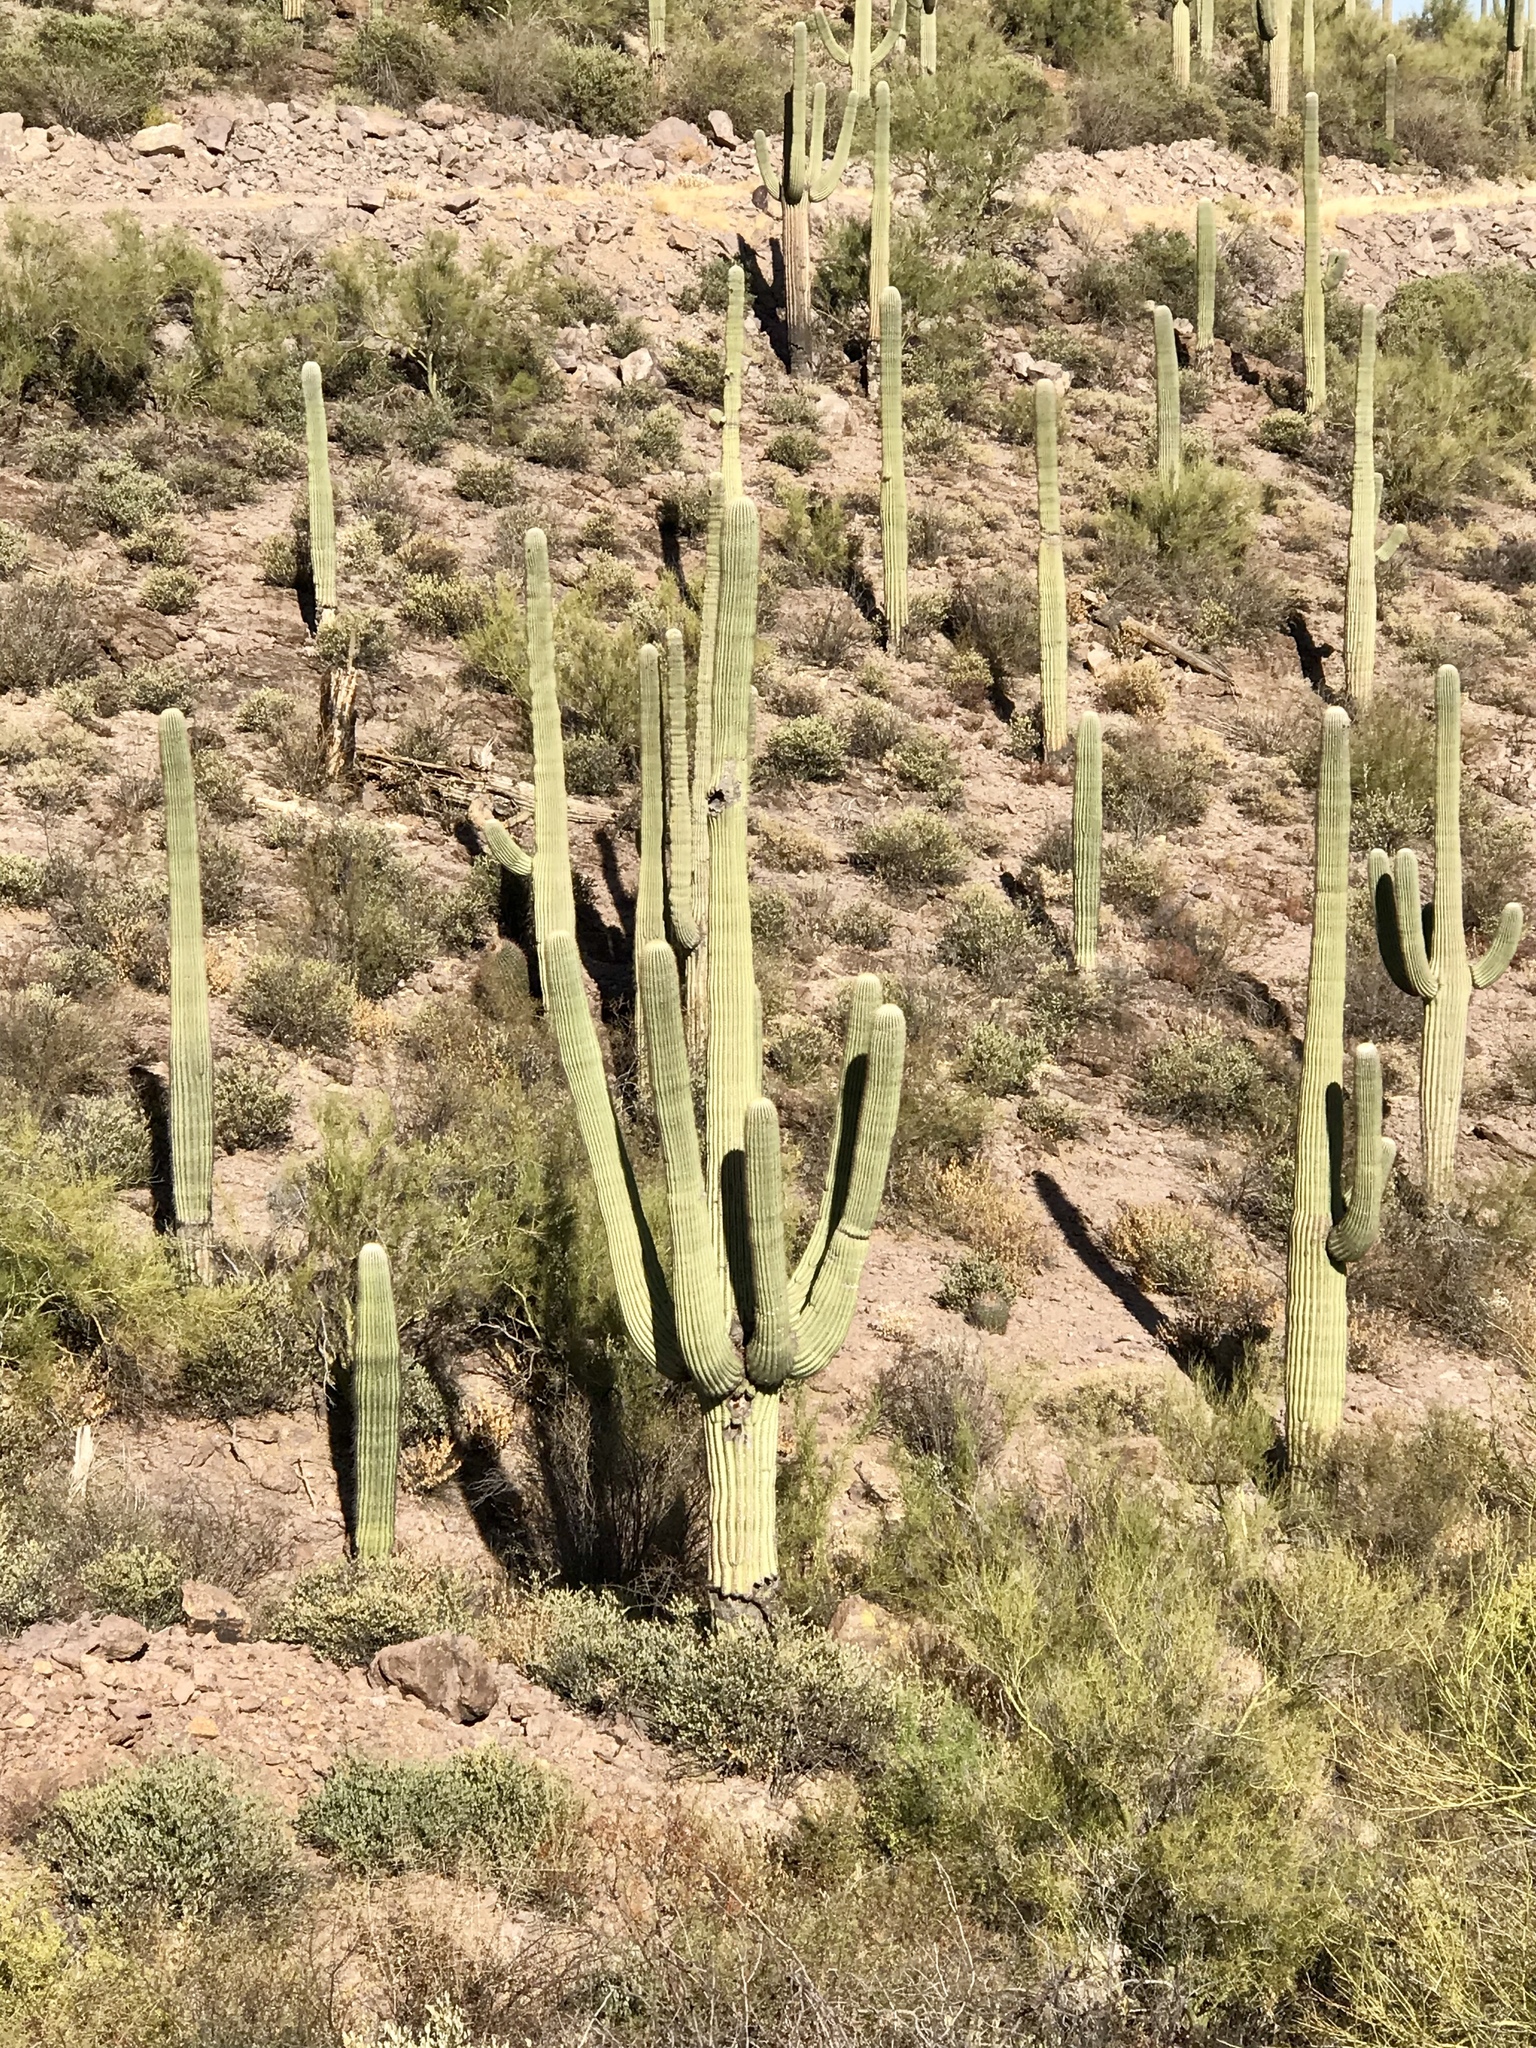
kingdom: Plantae
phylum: Tracheophyta
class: Magnoliopsida
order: Caryophyllales
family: Cactaceae
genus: Carnegiea
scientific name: Carnegiea gigantea
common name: Saguaro
